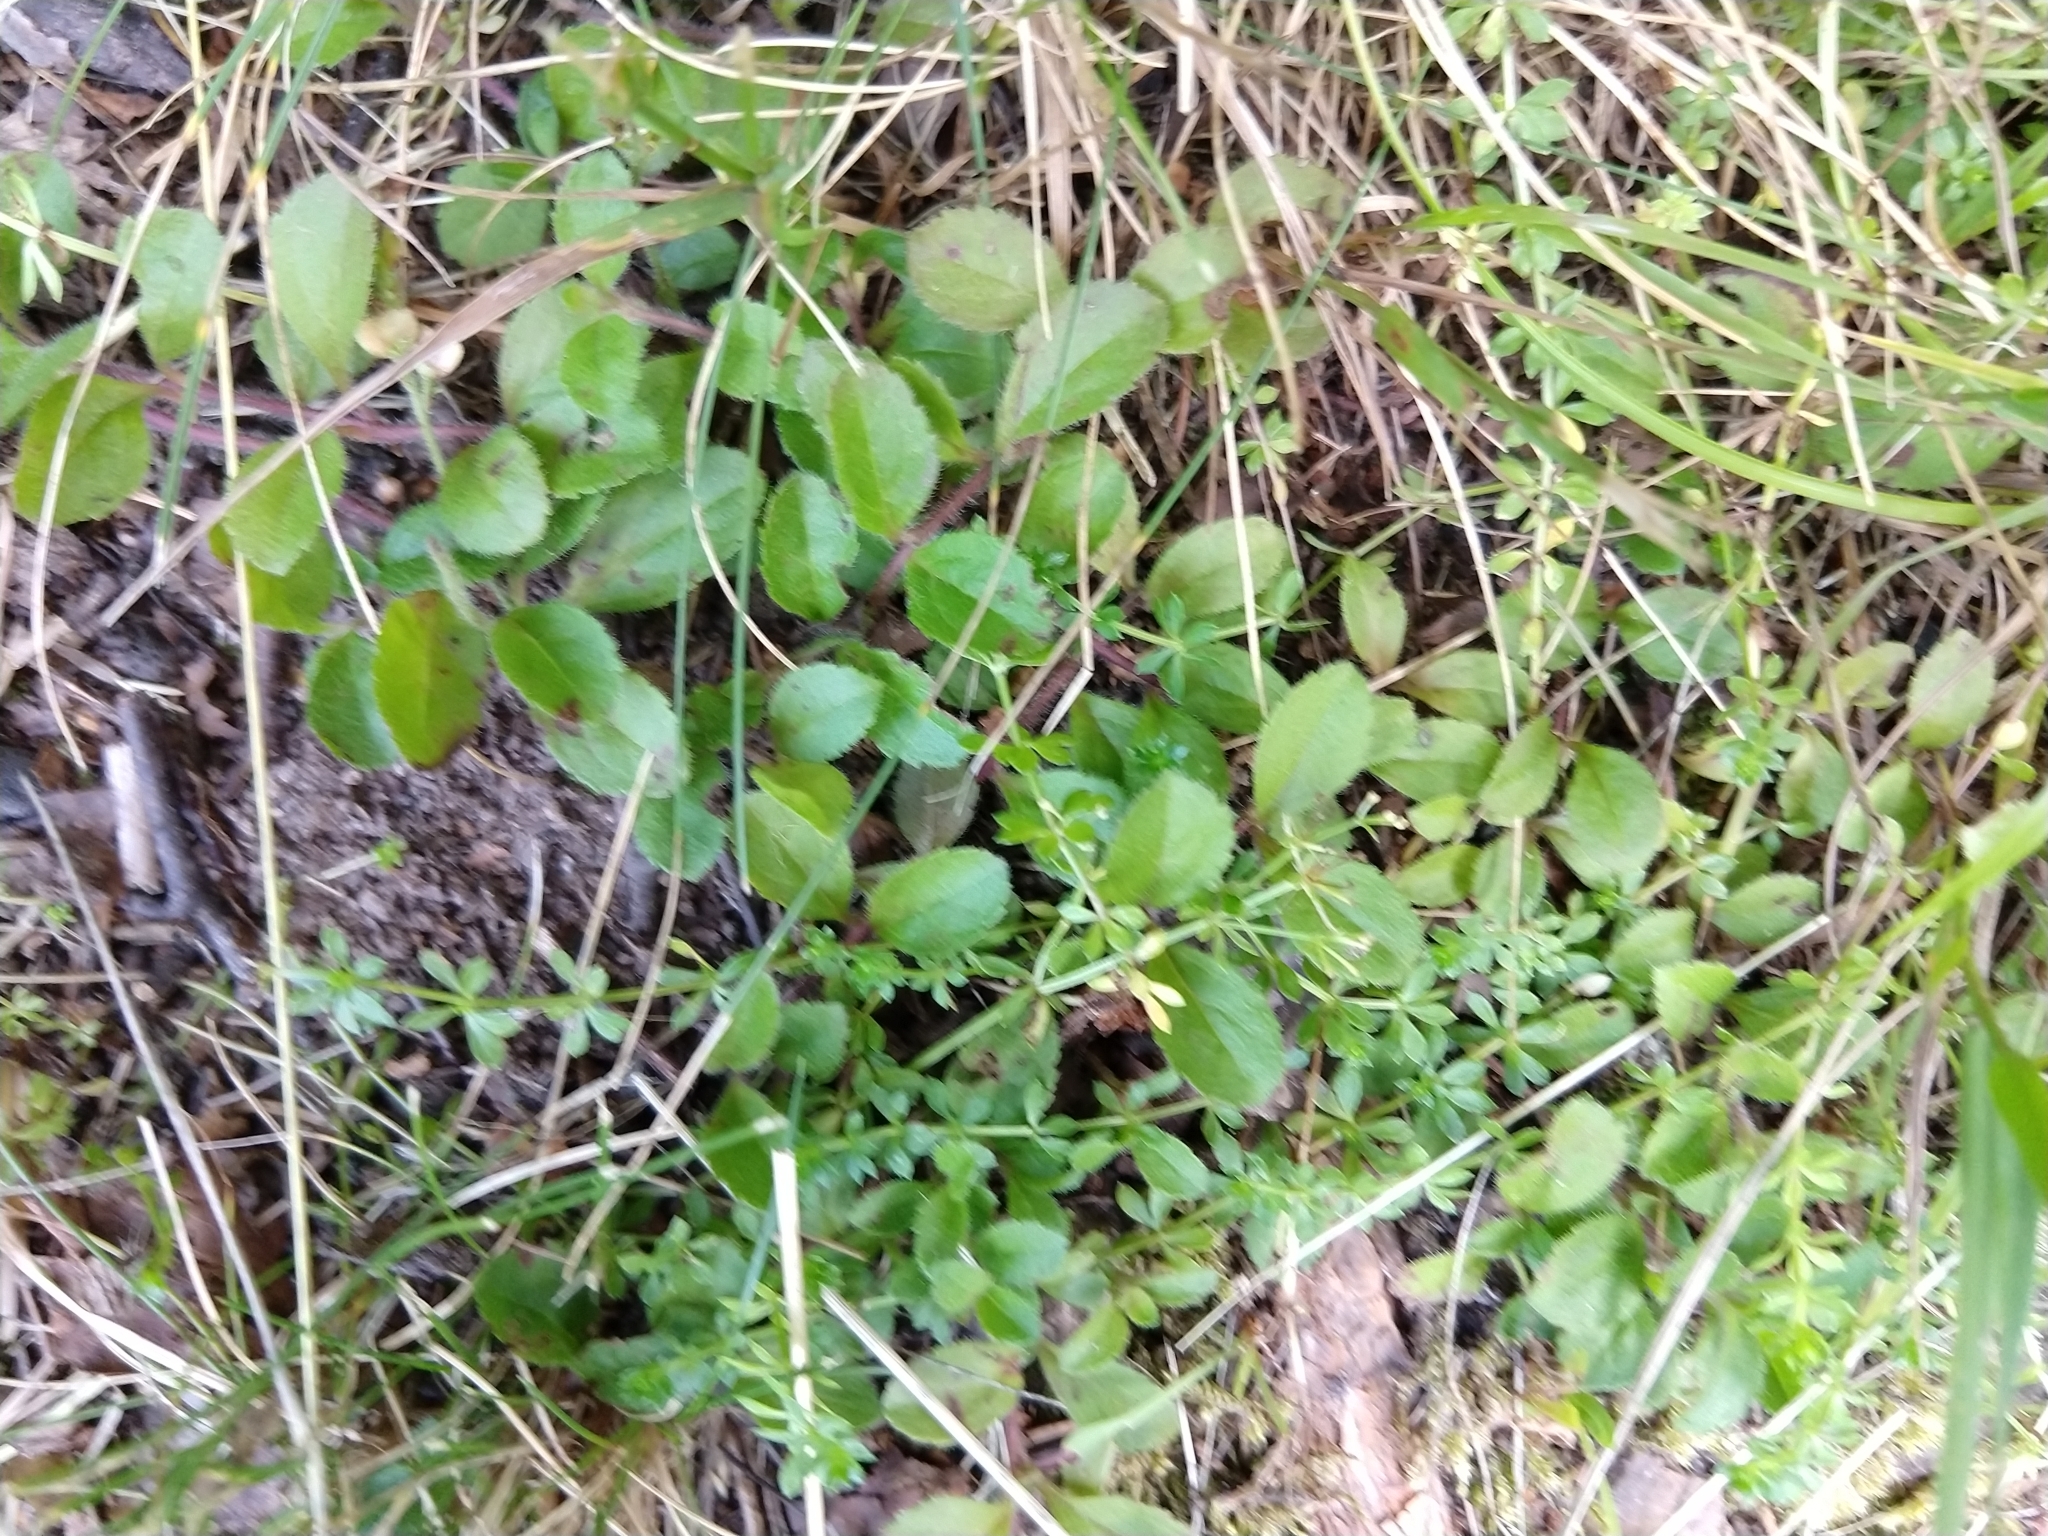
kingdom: Plantae
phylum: Tracheophyta
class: Magnoliopsida
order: Lamiales
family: Plantaginaceae
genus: Veronica
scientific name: Veronica officinalis
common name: Common speedwell
